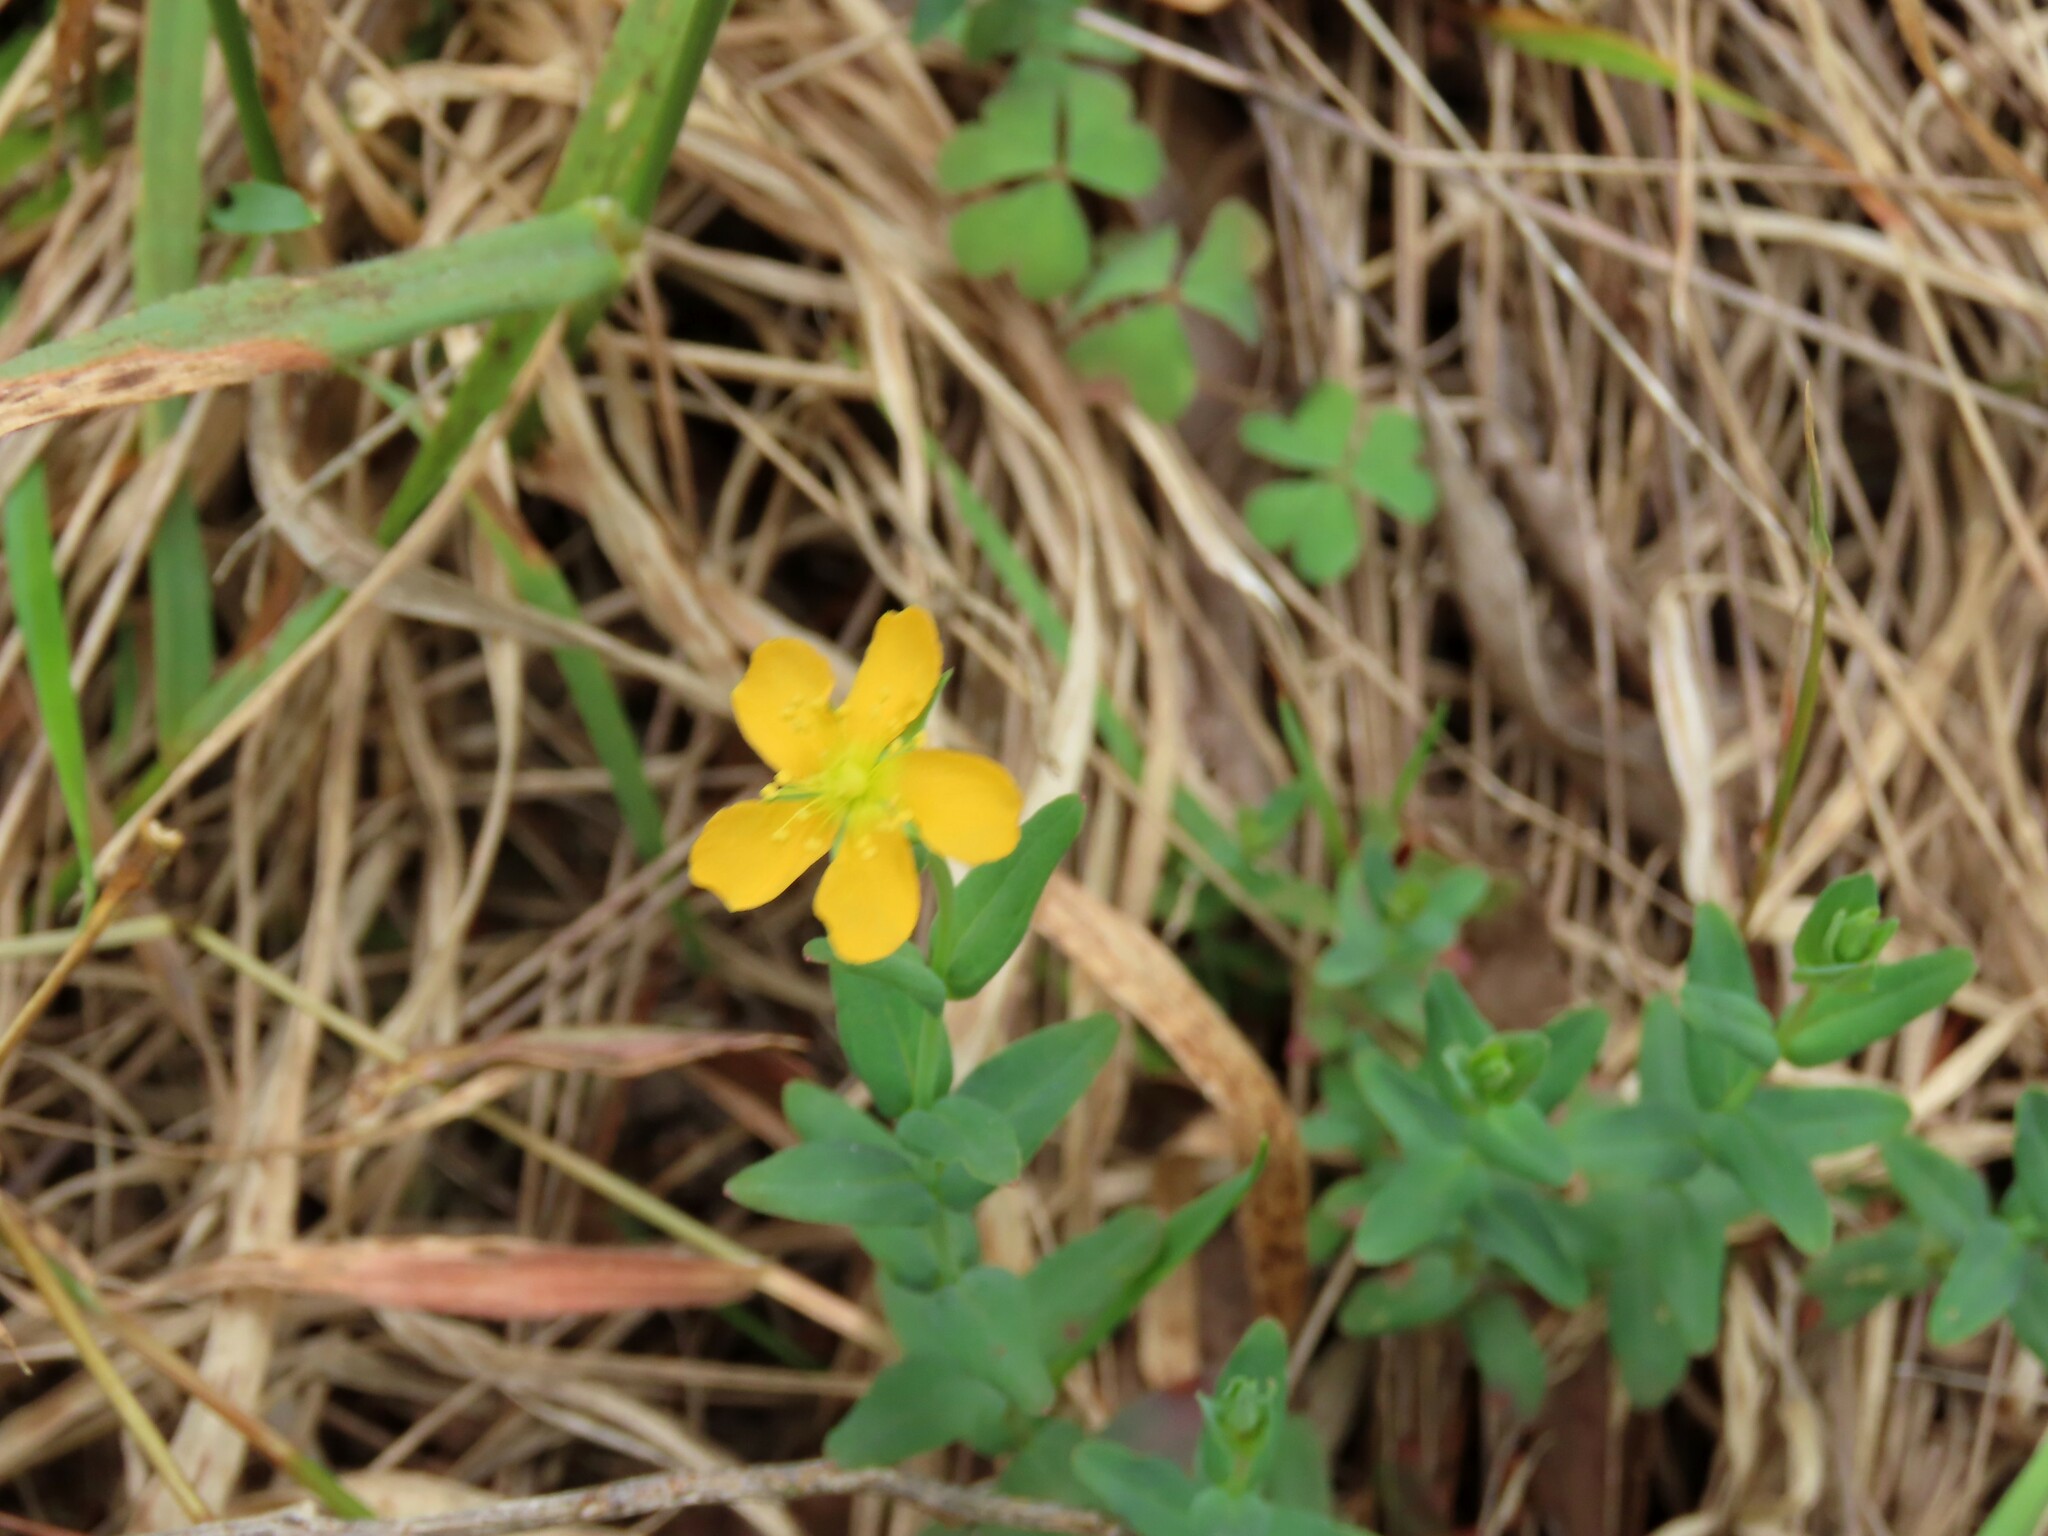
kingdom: Plantae
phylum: Tracheophyta
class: Magnoliopsida
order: Malpighiales
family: Hypericaceae
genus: Hypericum
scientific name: Hypericum gramineum
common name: Grassy st. johnswort
